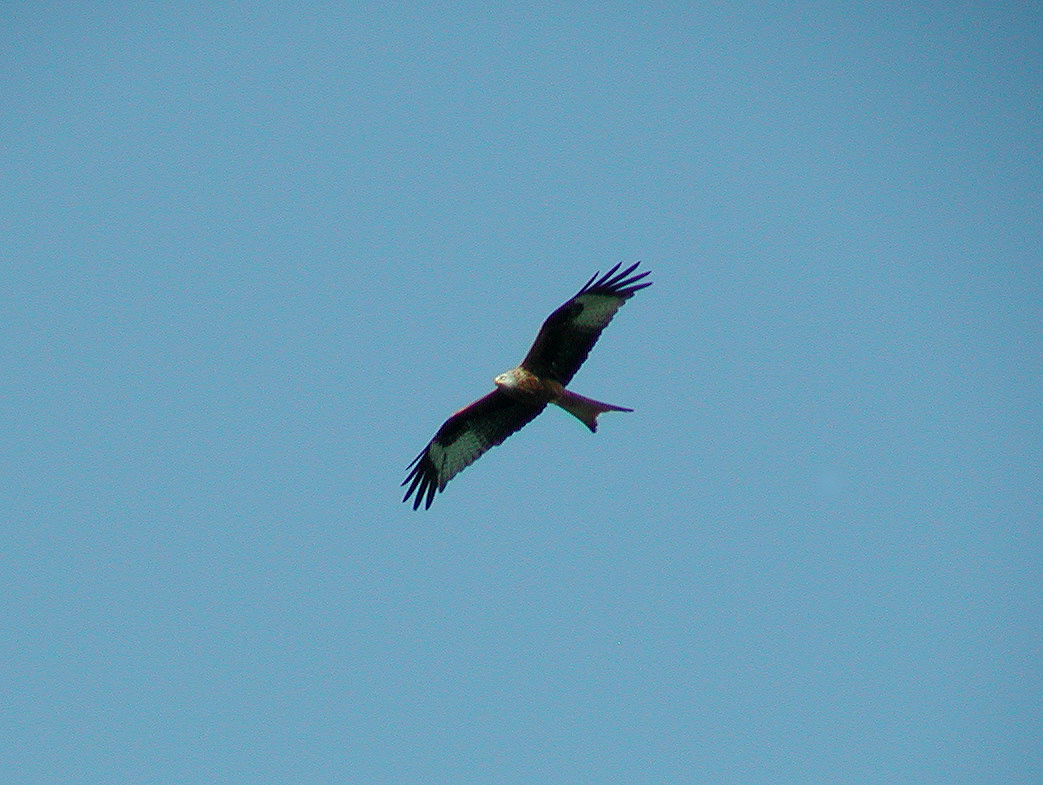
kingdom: Animalia
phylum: Chordata
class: Aves
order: Accipitriformes
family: Accipitridae
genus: Milvus
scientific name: Milvus milvus
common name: Red kite
